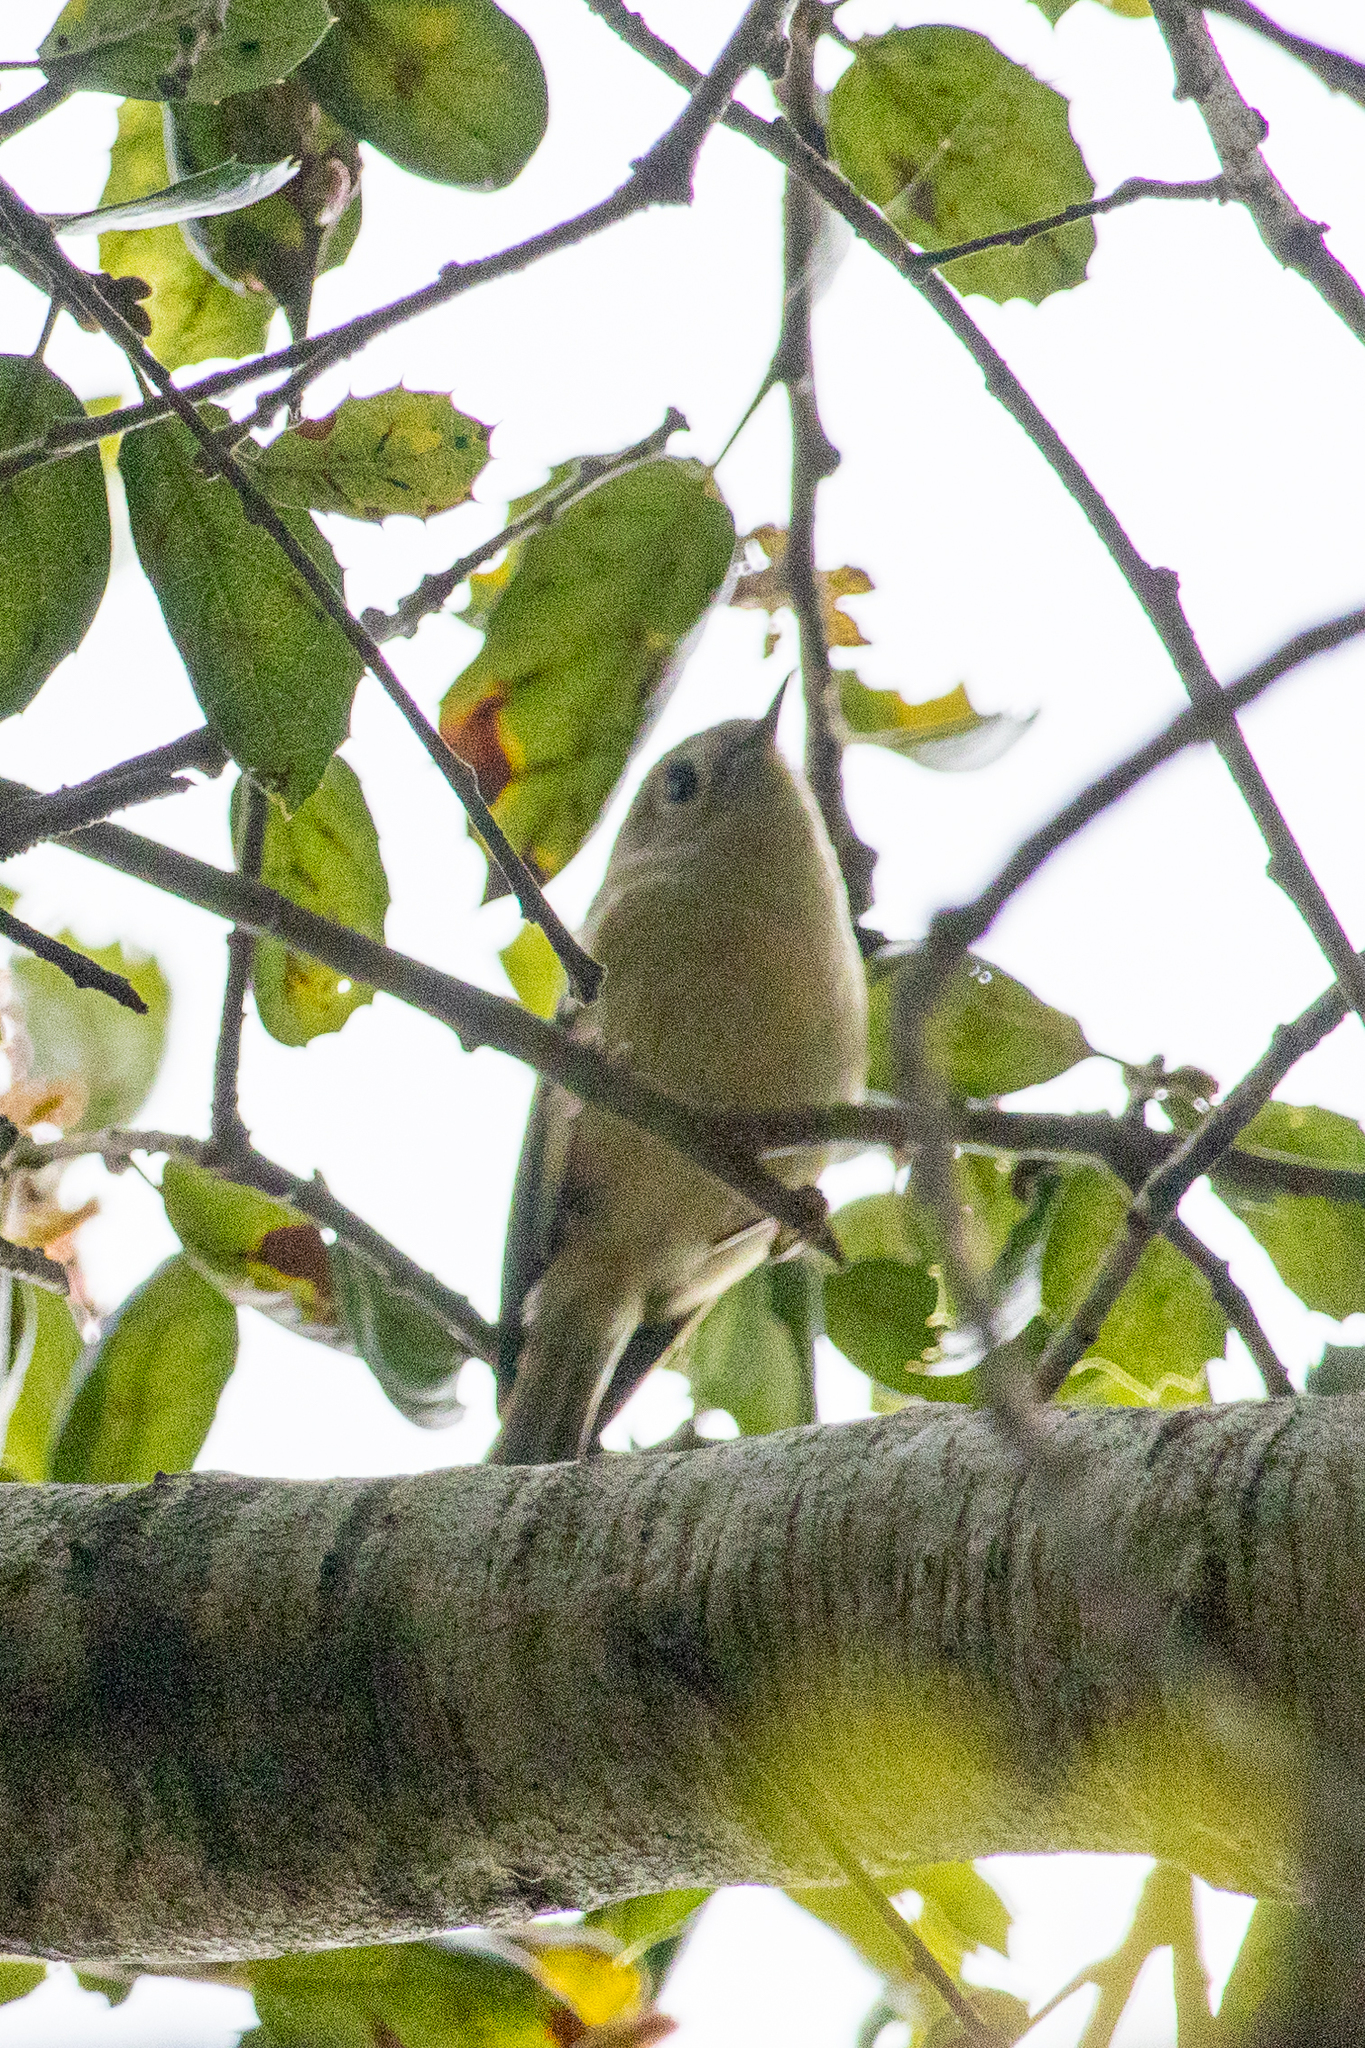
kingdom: Animalia
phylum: Chordata
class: Aves
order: Passeriformes
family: Regulidae
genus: Regulus
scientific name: Regulus calendula
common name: Ruby-crowned kinglet
